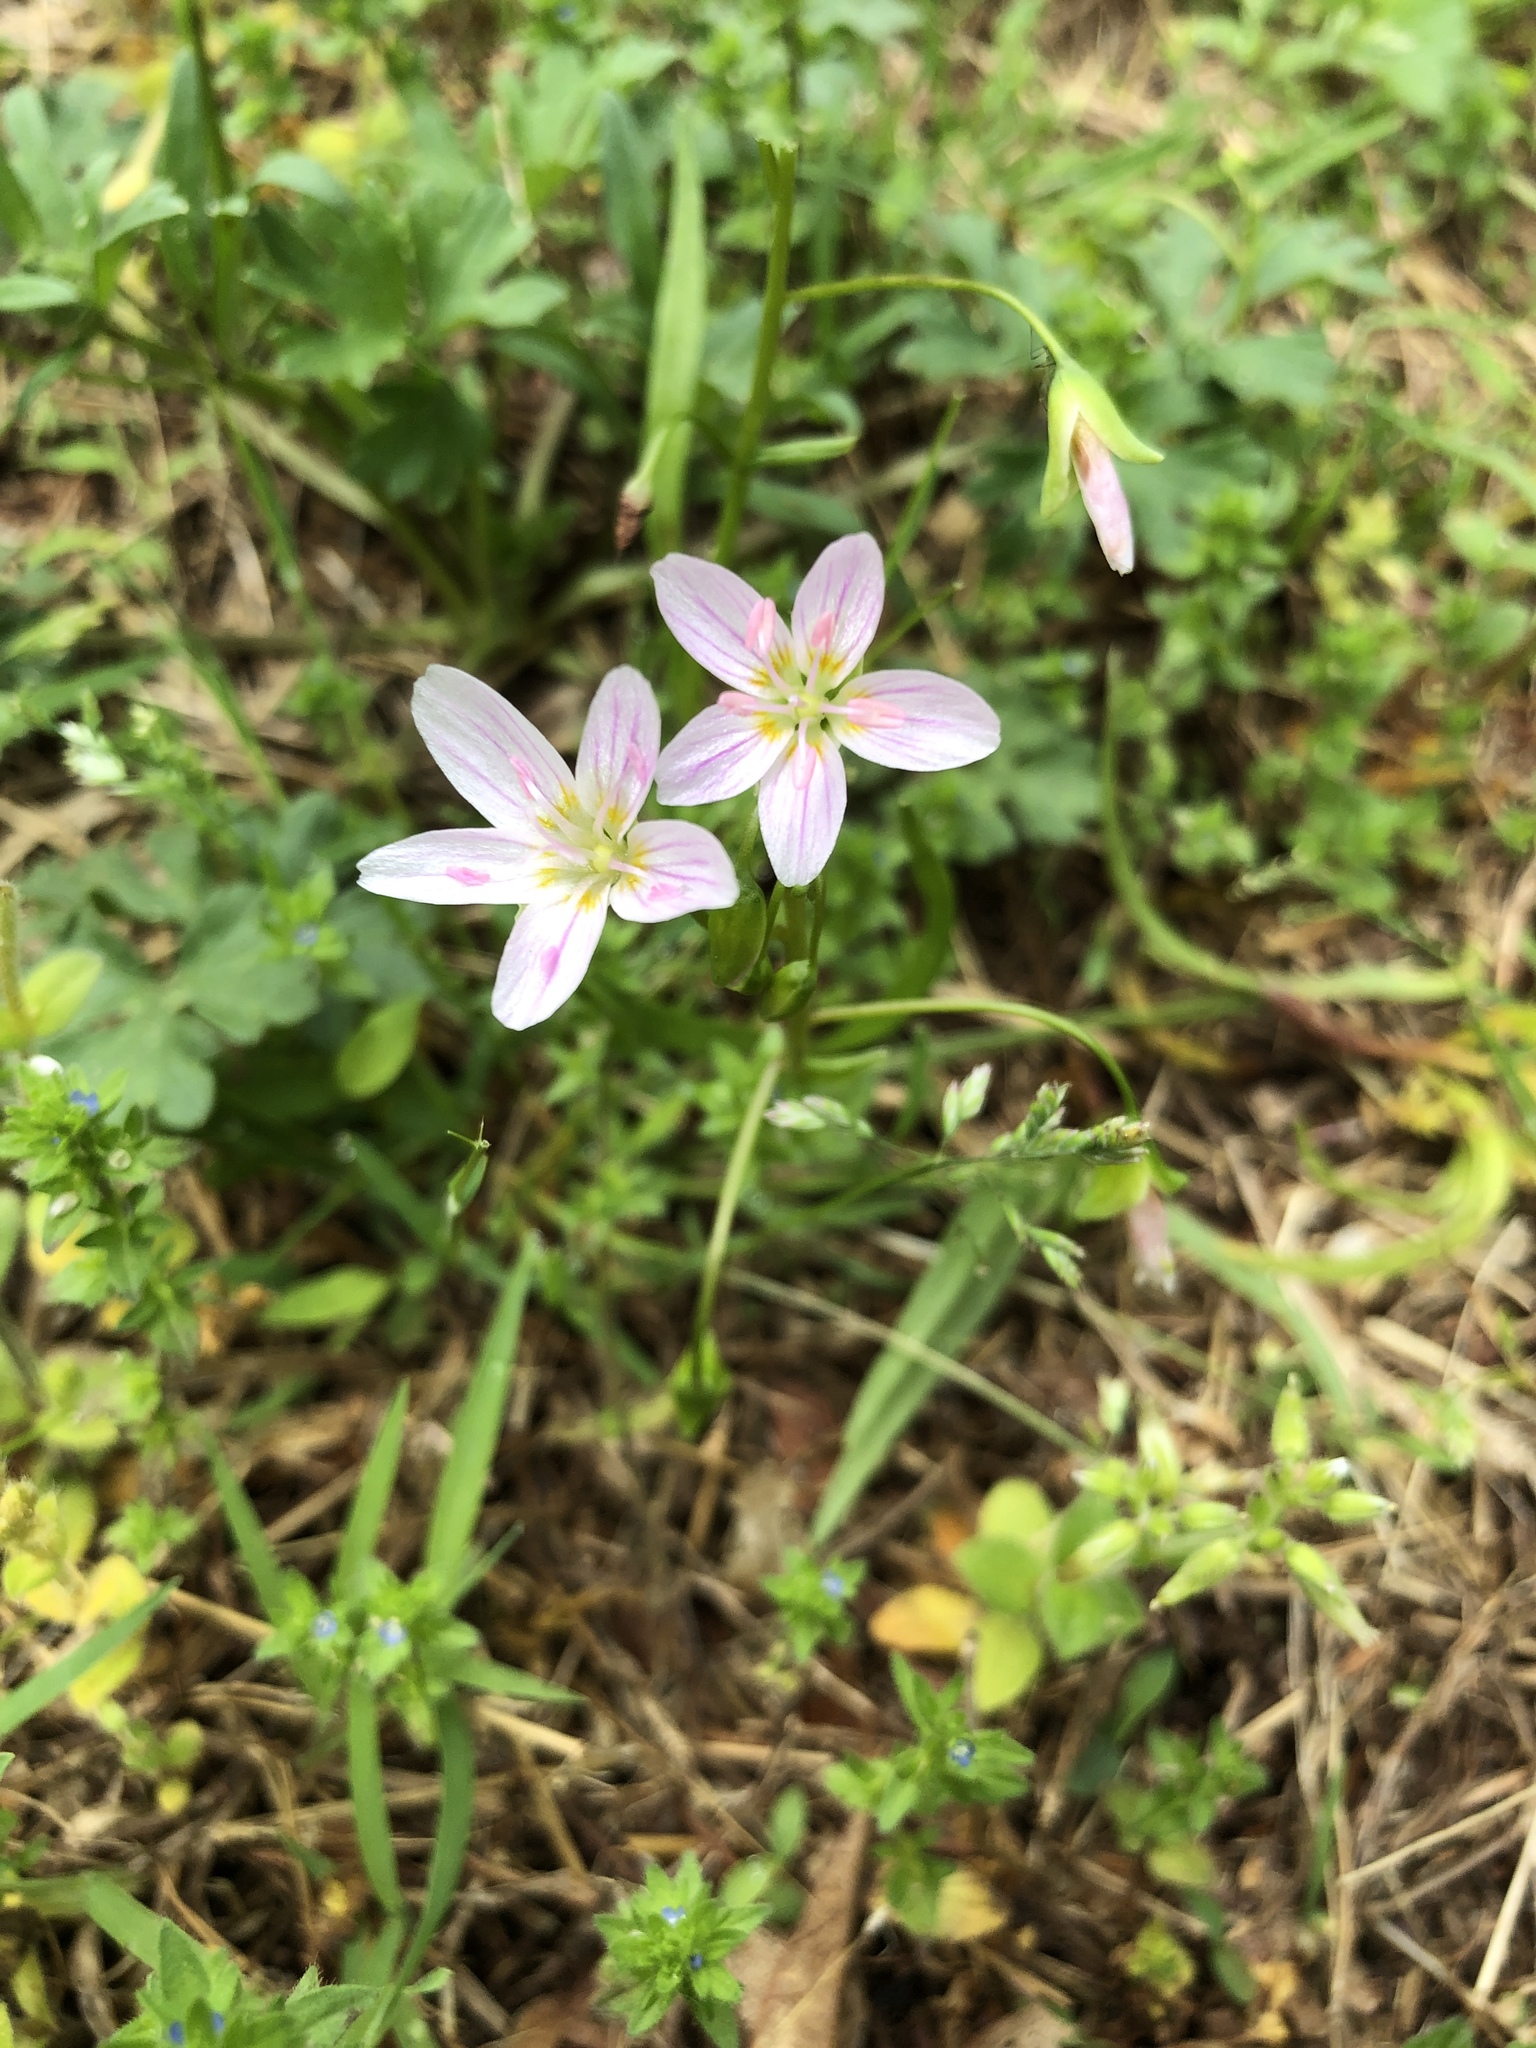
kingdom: Plantae
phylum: Tracheophyta
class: Magnoliopsida
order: Caryophyllales
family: Montiaceae
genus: Claytonia
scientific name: Claytonia virginica
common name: Virginia springbeauty
